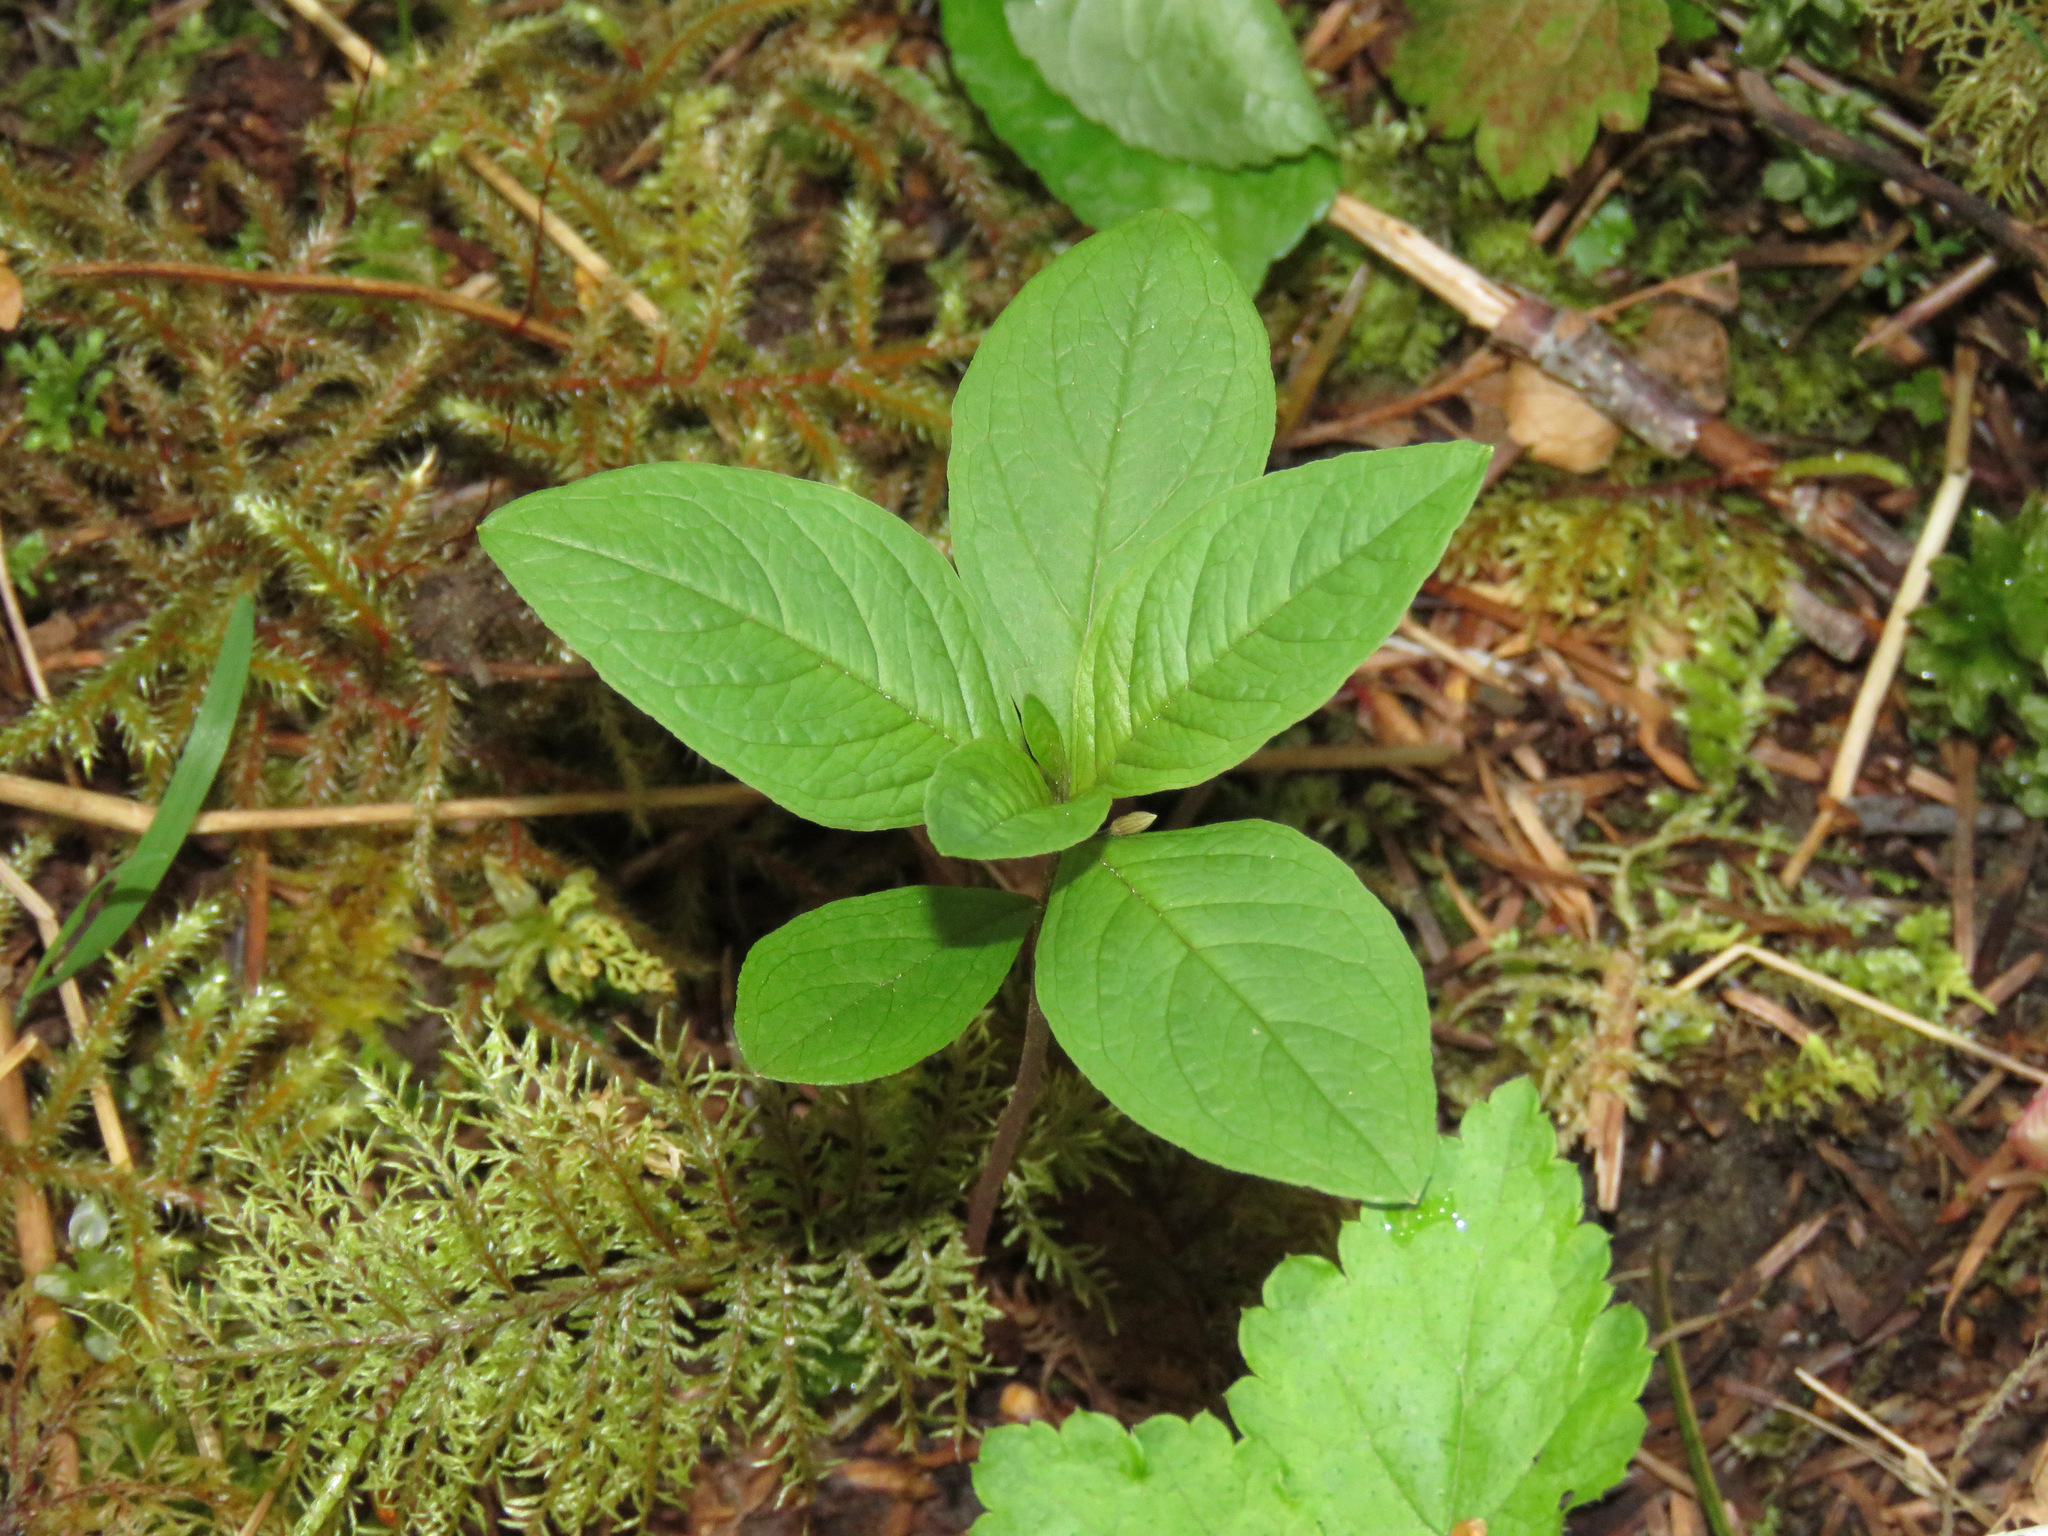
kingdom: Plantae
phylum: Tracheophyta
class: Magnoliopsida
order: Ericales
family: Primulaceae
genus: Lysimachia
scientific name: Lysimachia latifolia
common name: Pacific starflower
